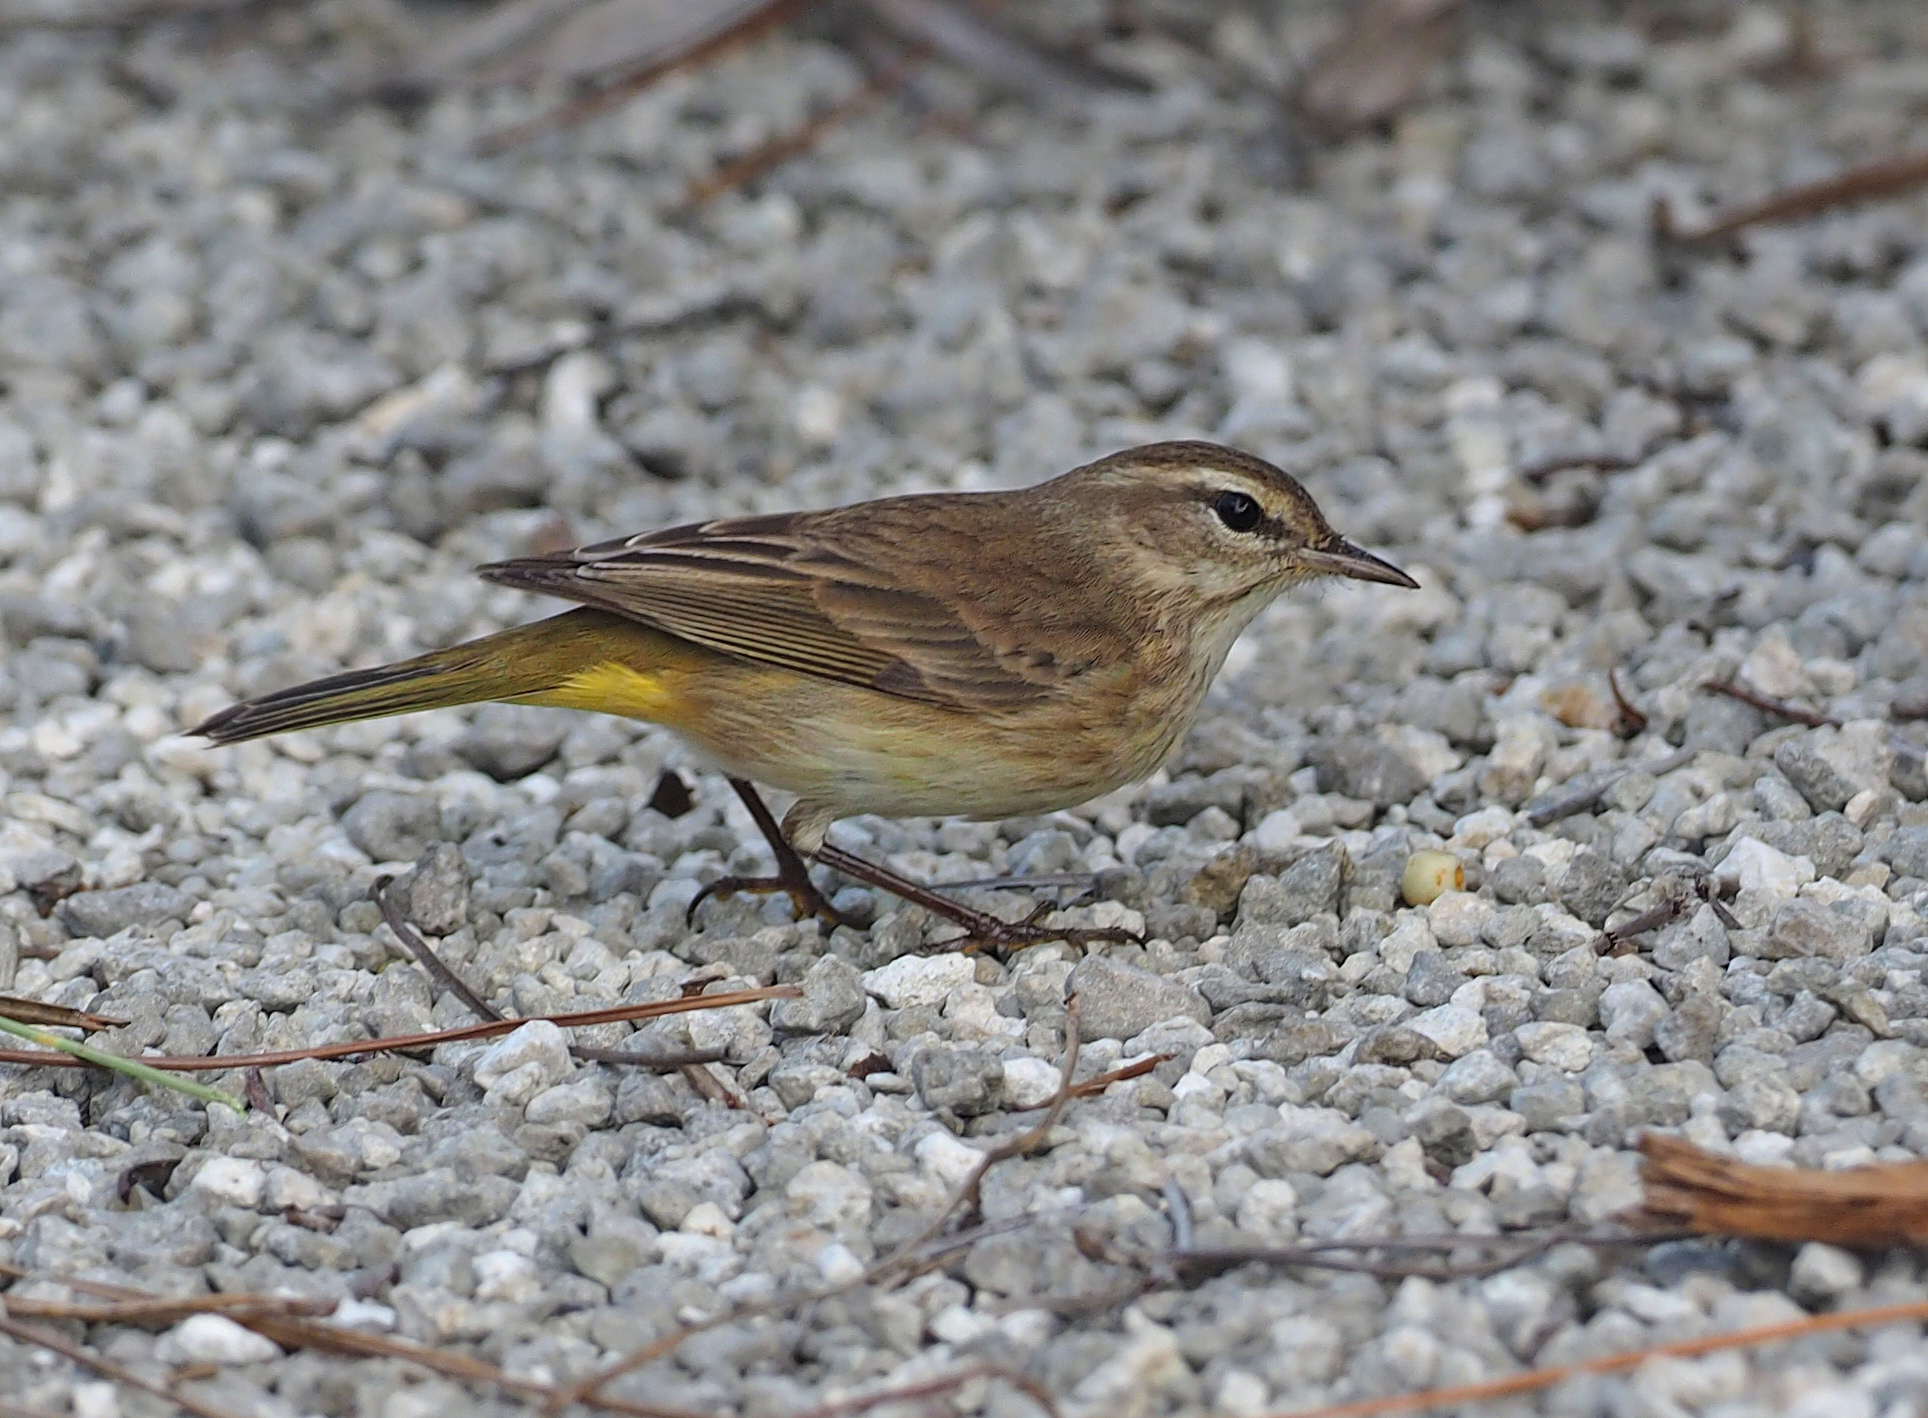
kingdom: Animalia
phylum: Chordata
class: Aves
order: Passeriformes
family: Parulidae
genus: Setophaga
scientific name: Setophaga palmarum
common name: Palm warbler
